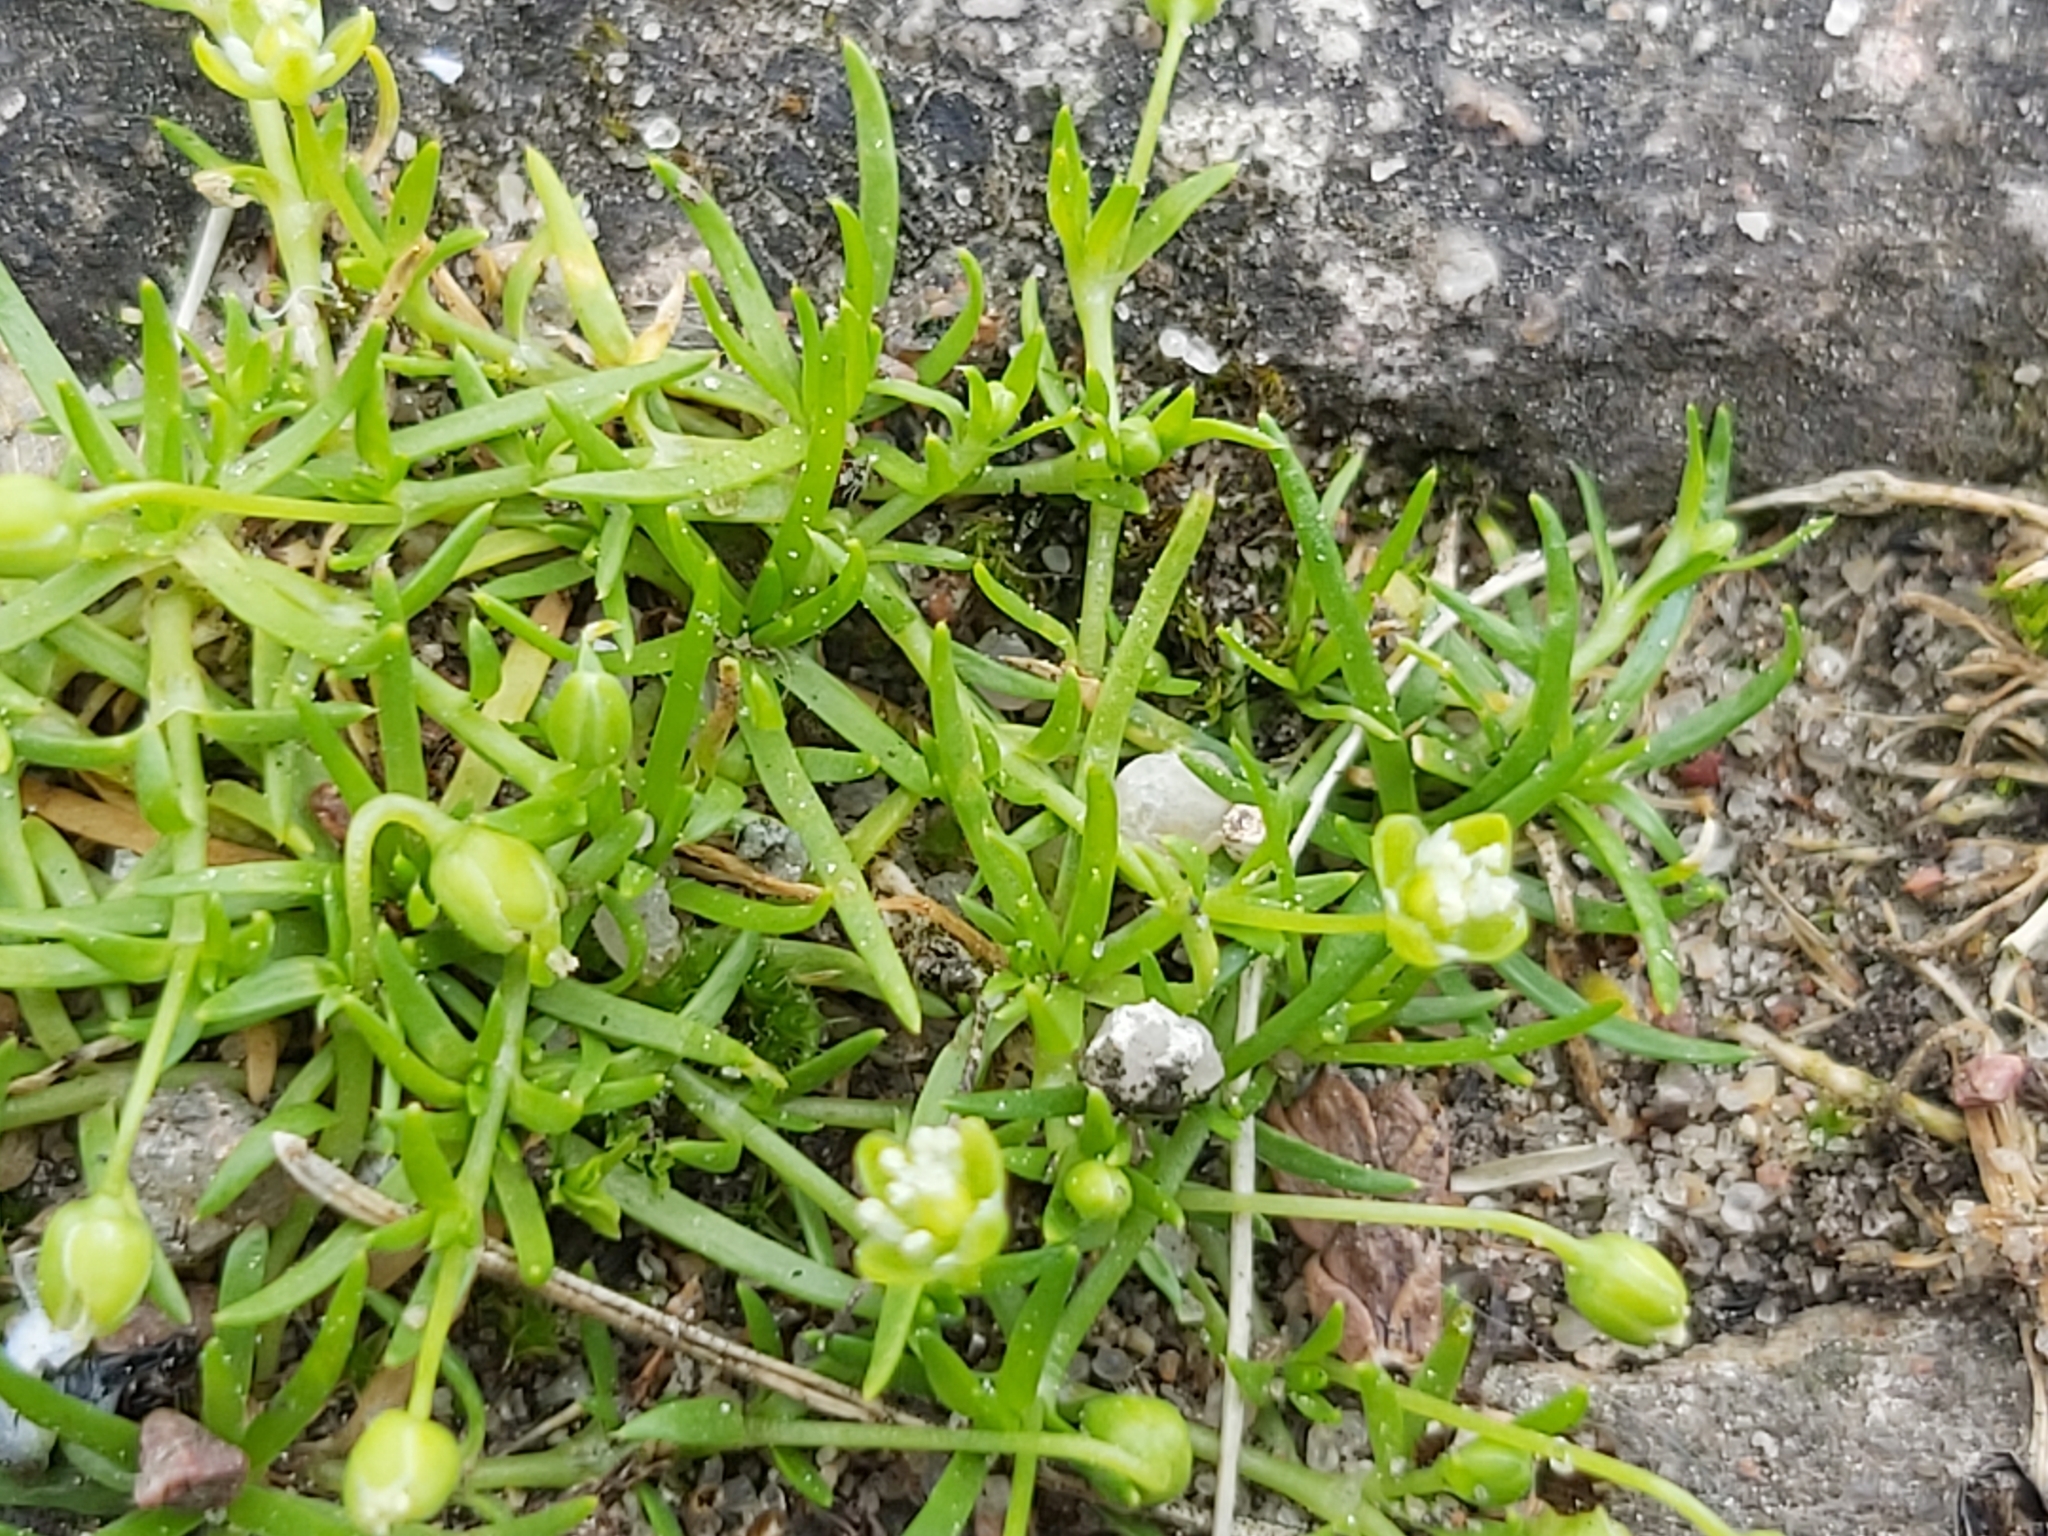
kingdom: Plantae
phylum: Tracheophyta
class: Magnoliopsida
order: Caryophyllales
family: Caryophyllaceae
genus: Sagina
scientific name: Sagina procumbens
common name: Procumbent pearlwort
